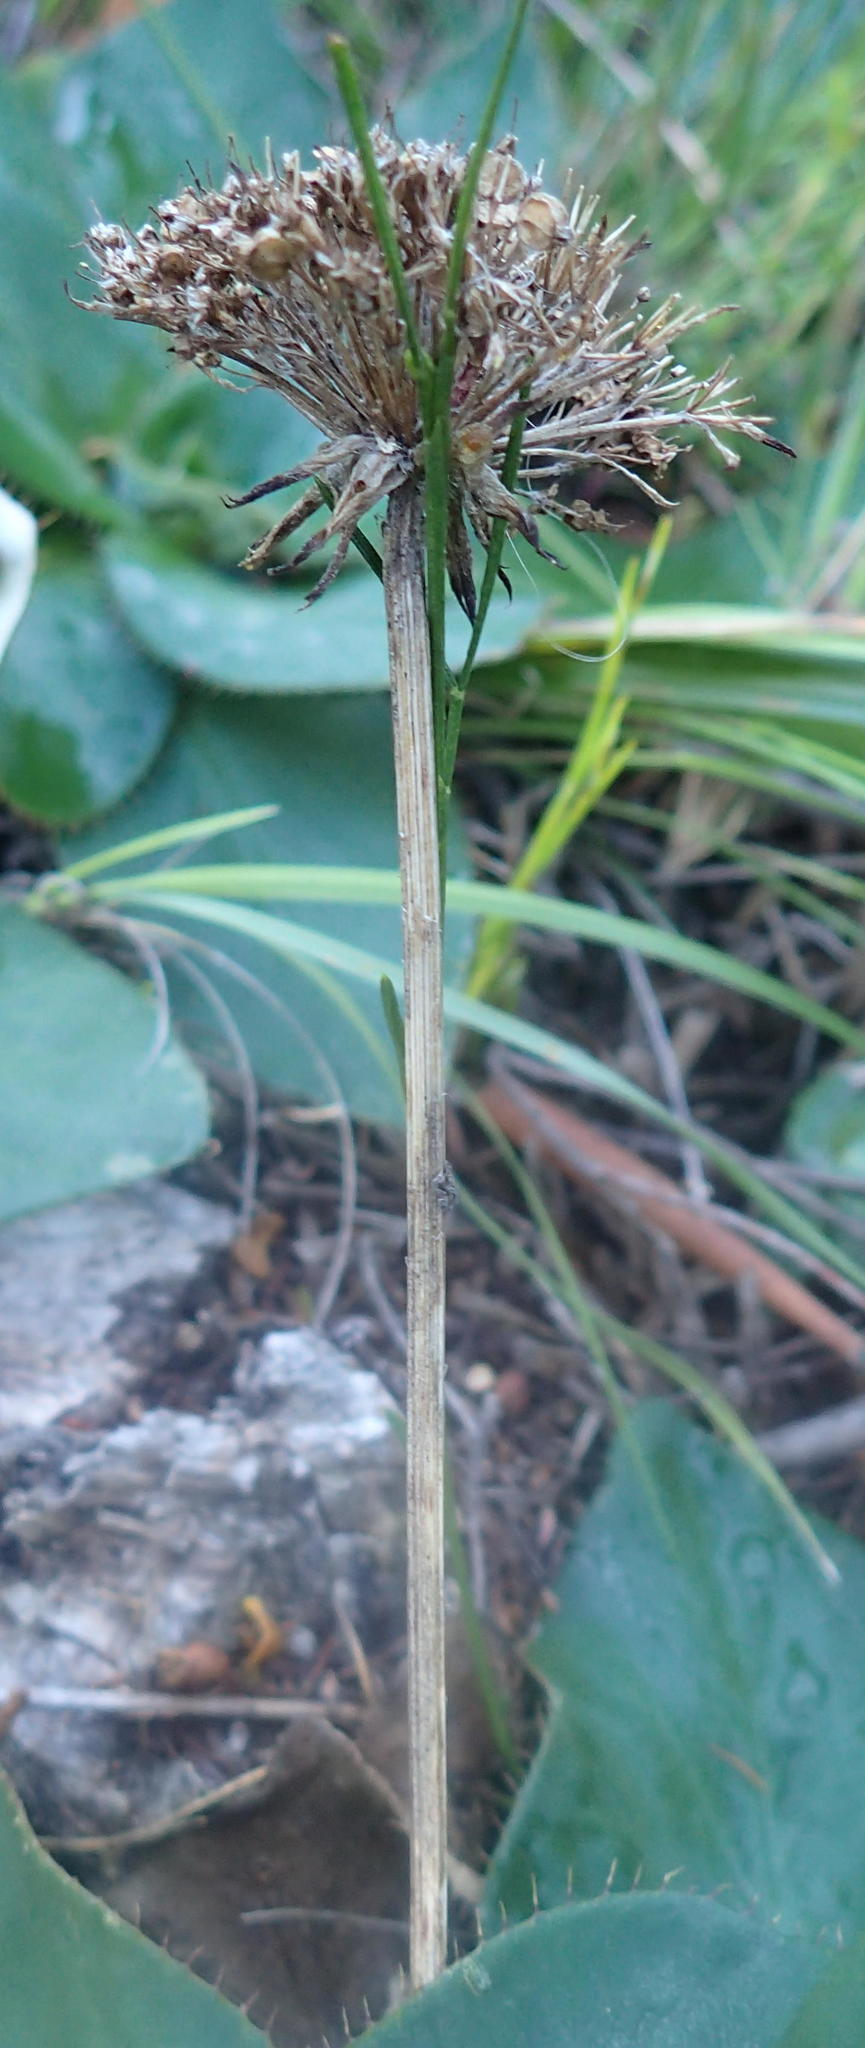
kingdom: Plantae
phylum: Tracheophyta
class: Magnoliopsida
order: Apiales
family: Apiaceae
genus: Hermas
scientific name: Hermas ciliata
